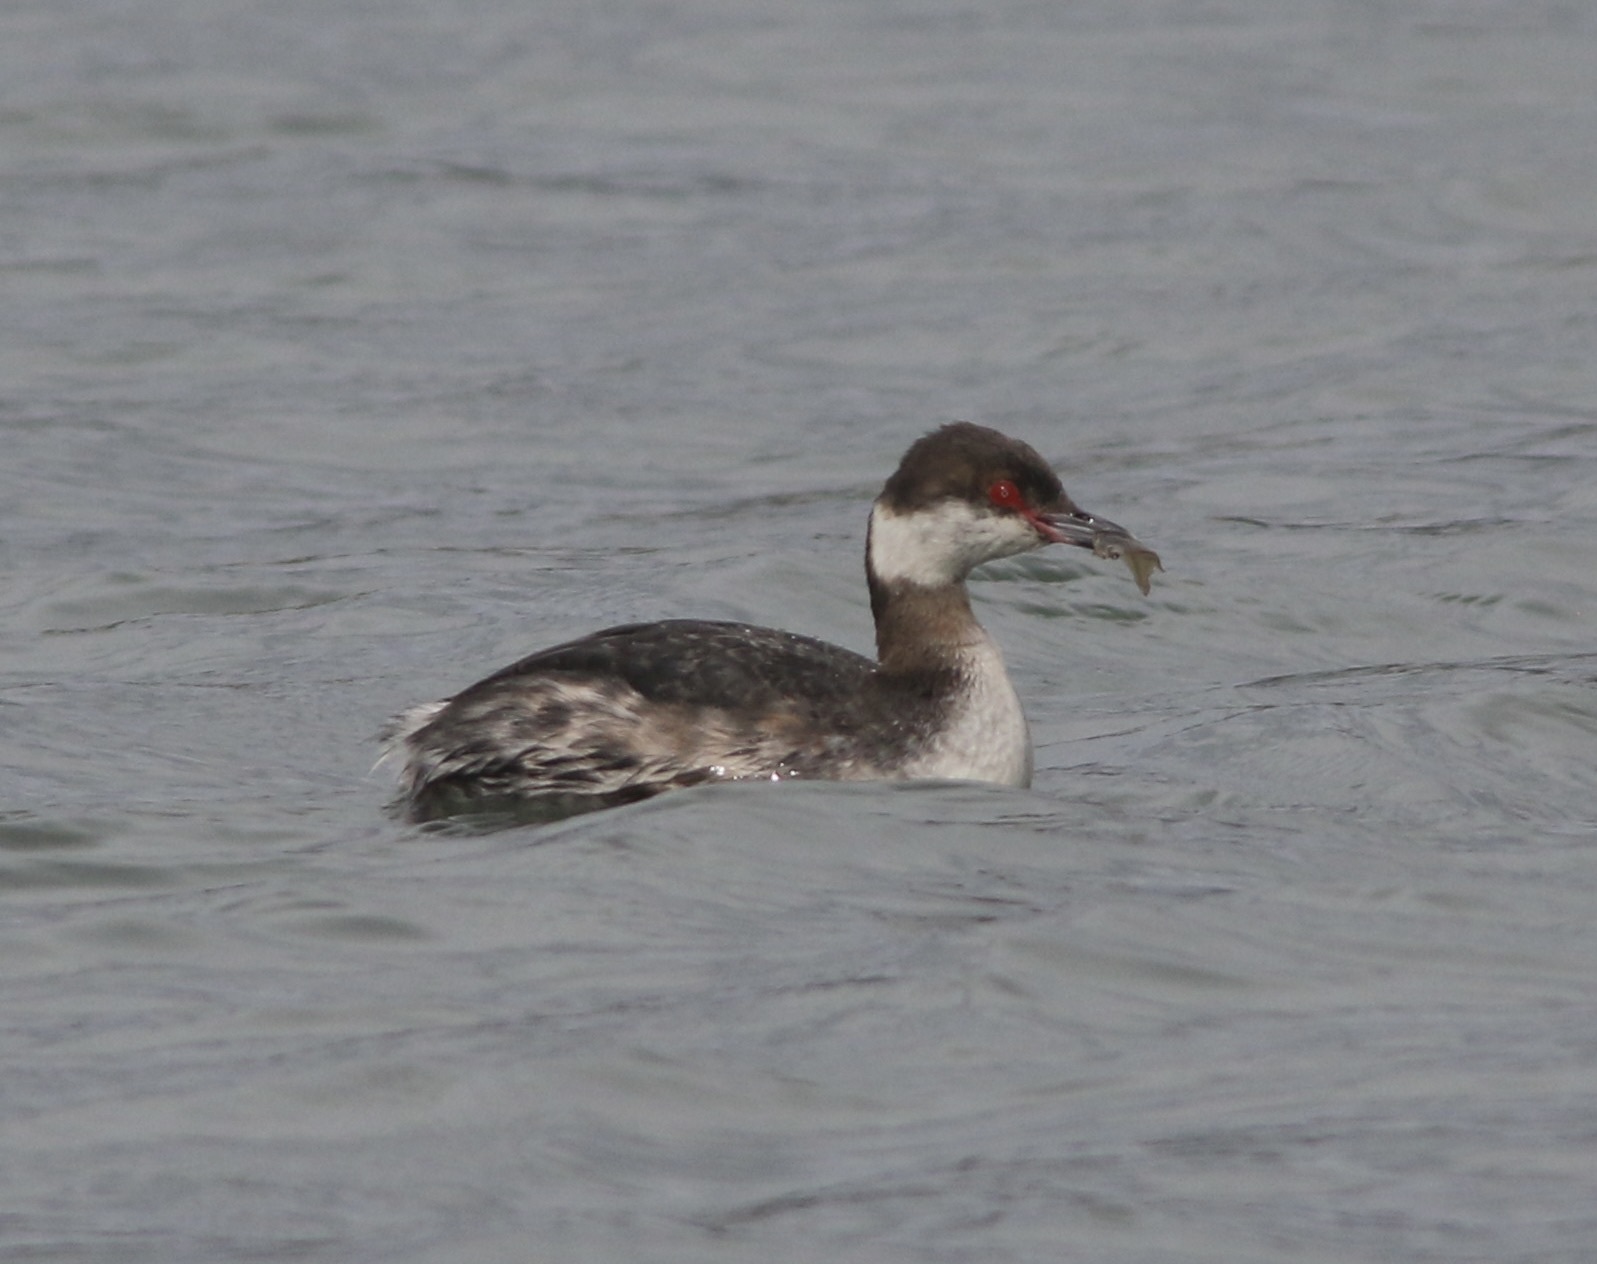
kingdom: Animalia
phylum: Chordata
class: Aves
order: Podicipediformes
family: Podicipedidae
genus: Podiceps
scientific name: Podiceps auritus
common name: Horned grebe
